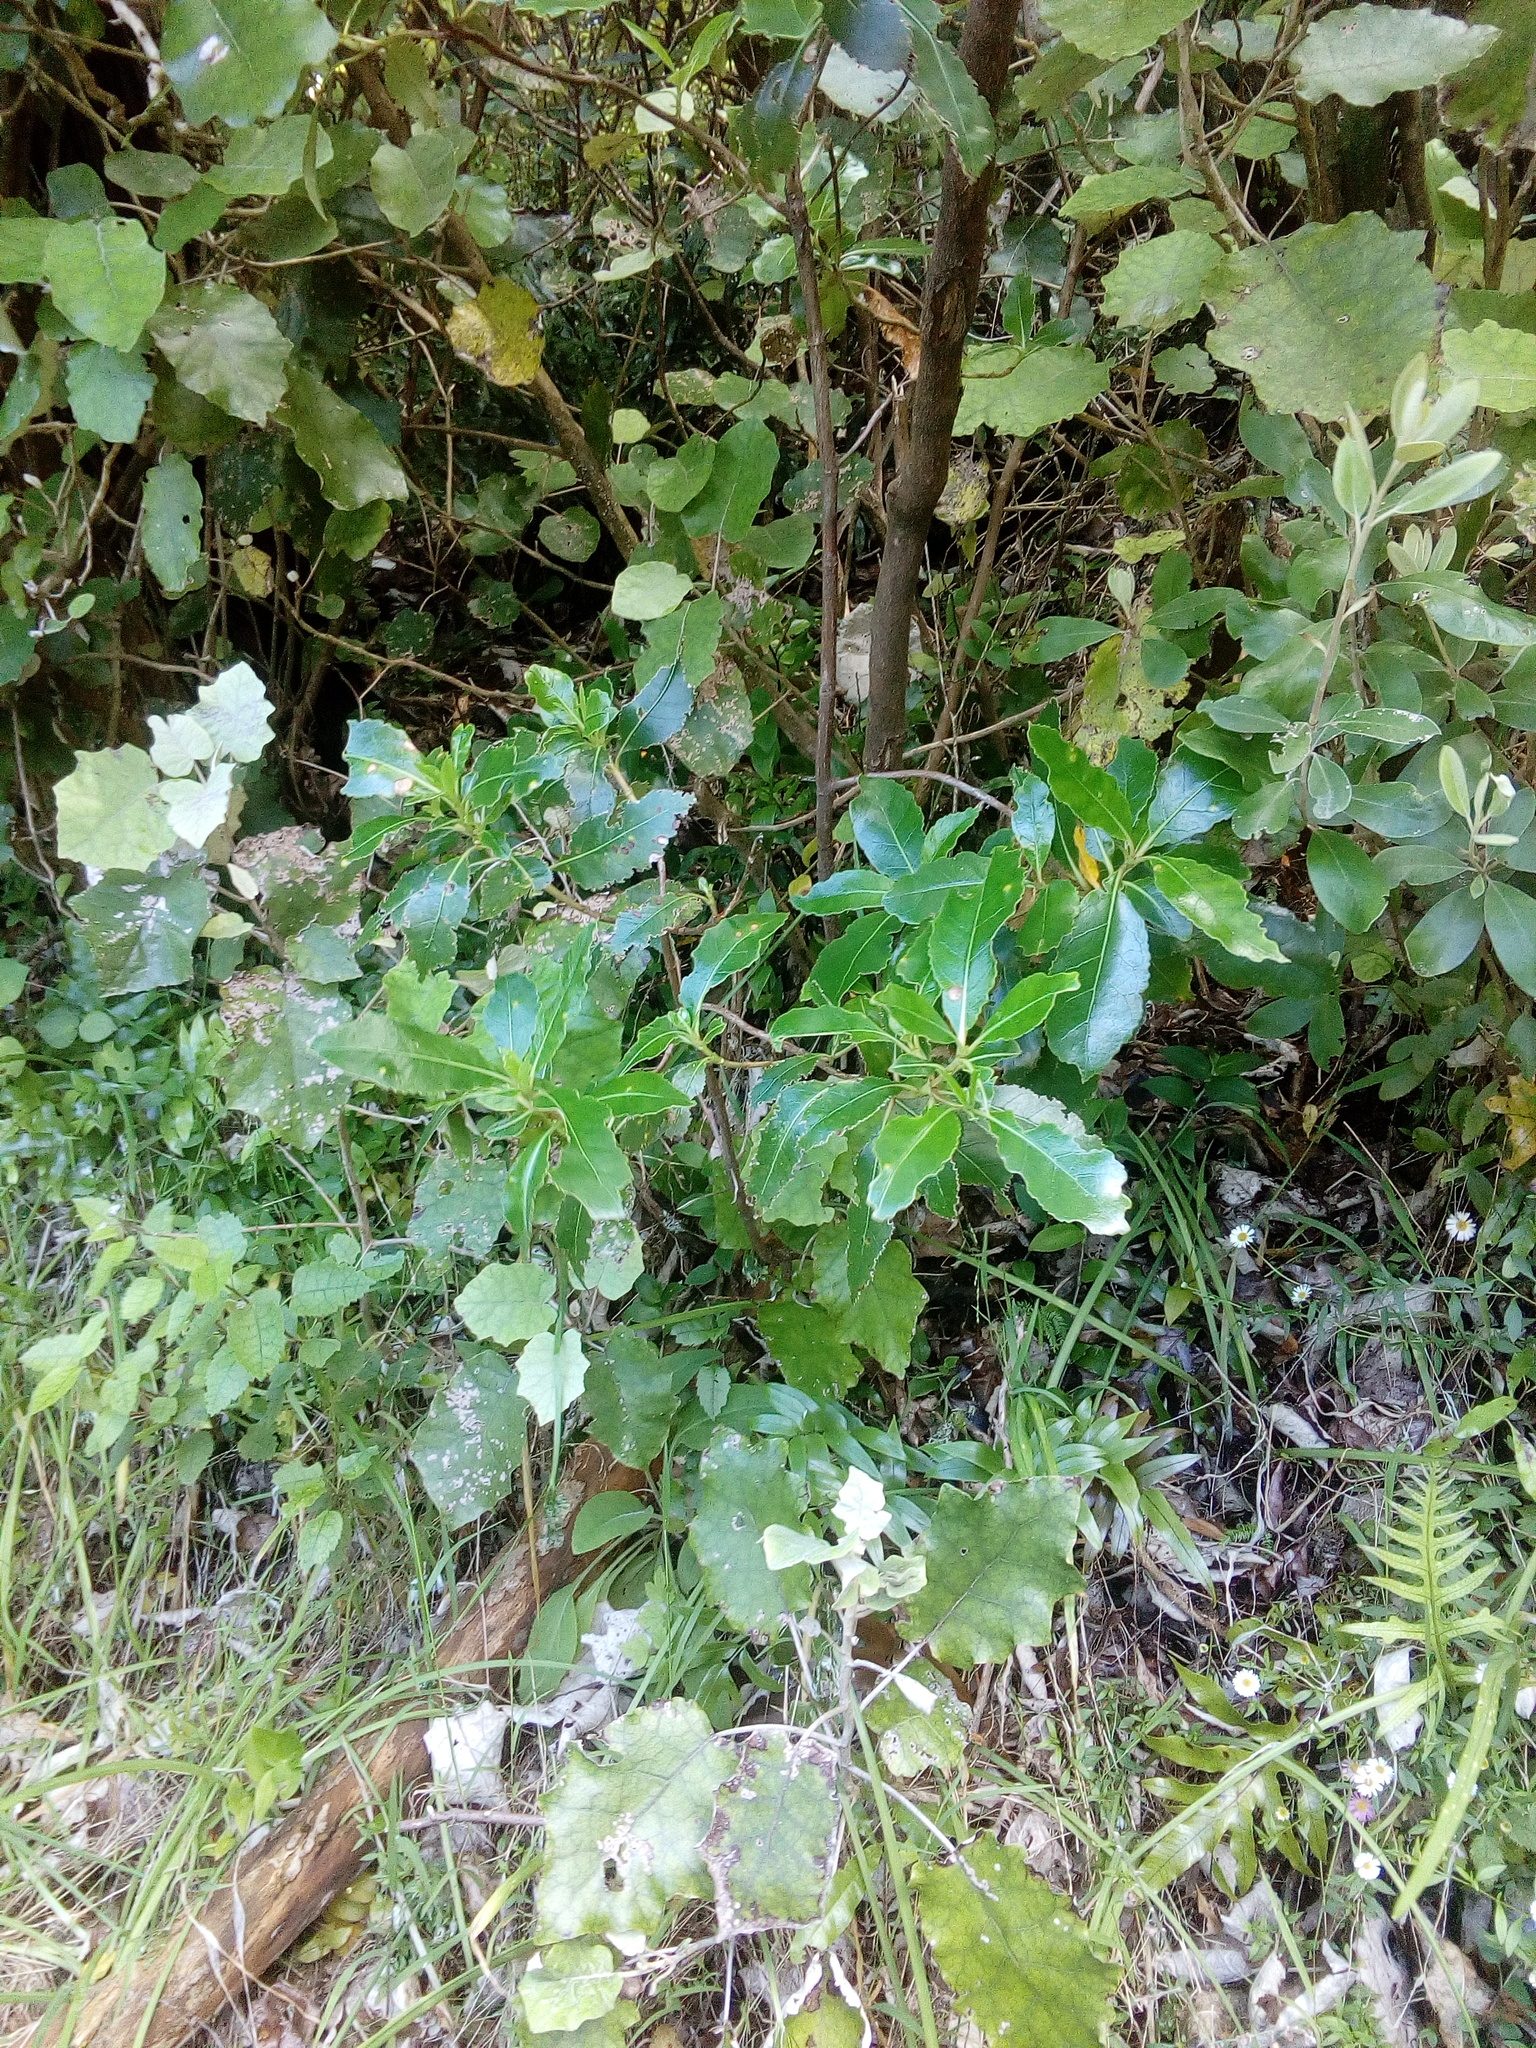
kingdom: Plantae
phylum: Tracheophyta
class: Magnoliopsida
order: Malpighiales
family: Violaceae
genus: Melicytus
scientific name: Melicytus ramiflorus
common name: Mahoe
